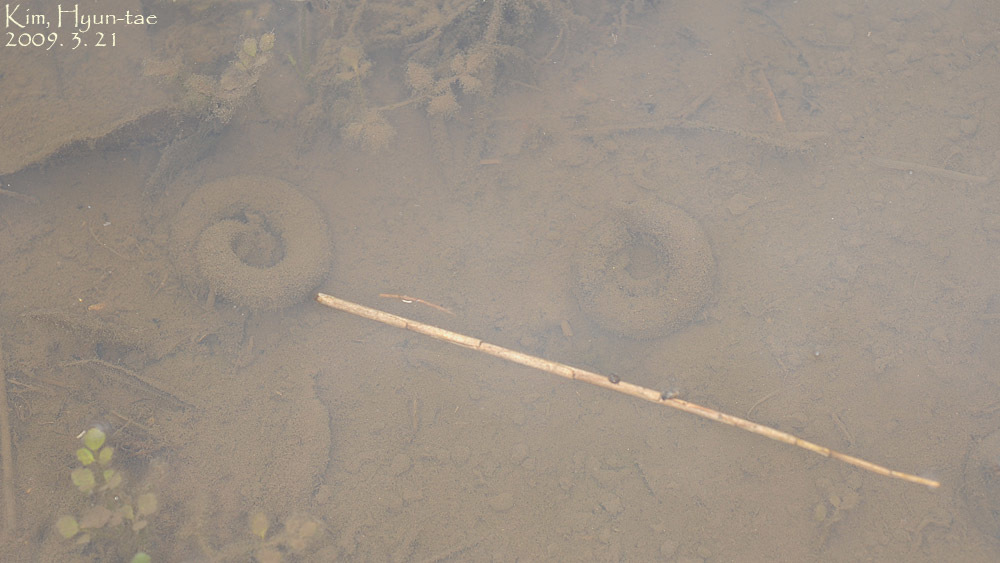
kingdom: Animalia
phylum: Chordata
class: Amphibia
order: Caudata
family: Hynobiidae
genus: Hynobius
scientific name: Hynobius leechii
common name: Gensan salamander
